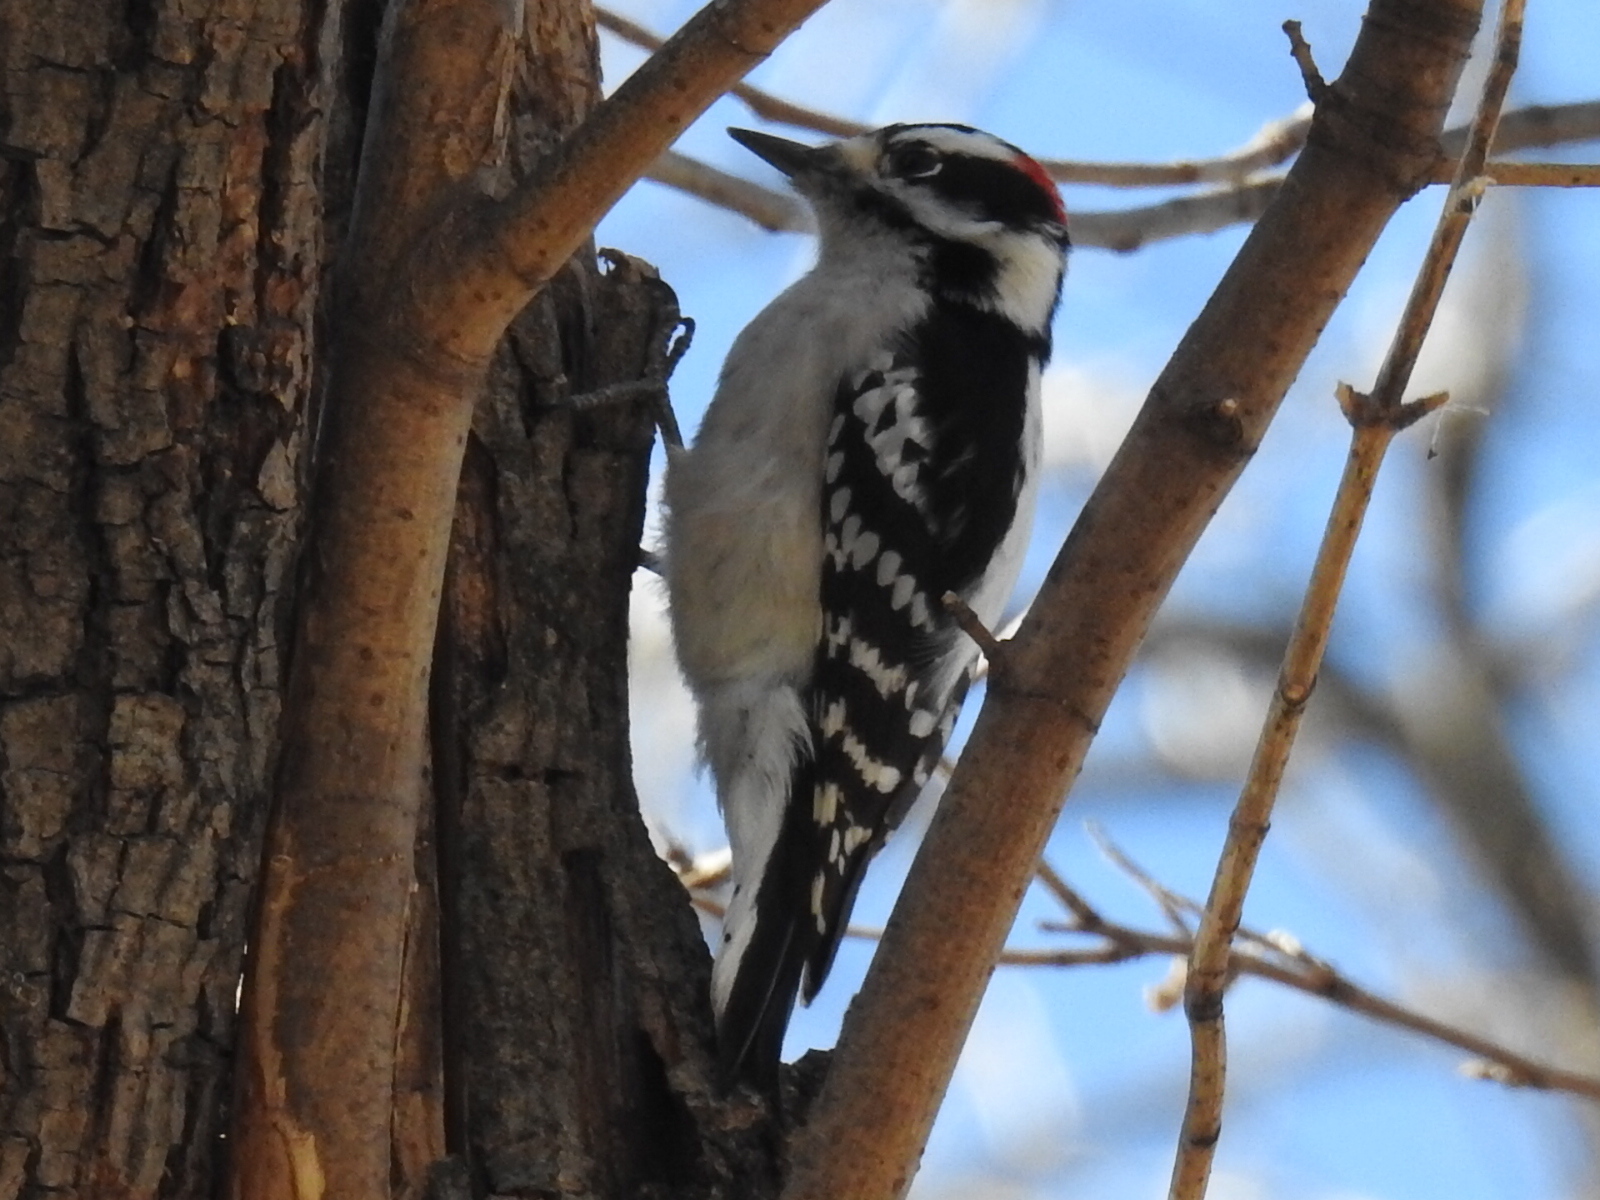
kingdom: Animalia
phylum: Chordata
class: Aves
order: Piciformes
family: Picidae
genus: Dryobates
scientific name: Dryobates pubescens
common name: Downy woodpecker
